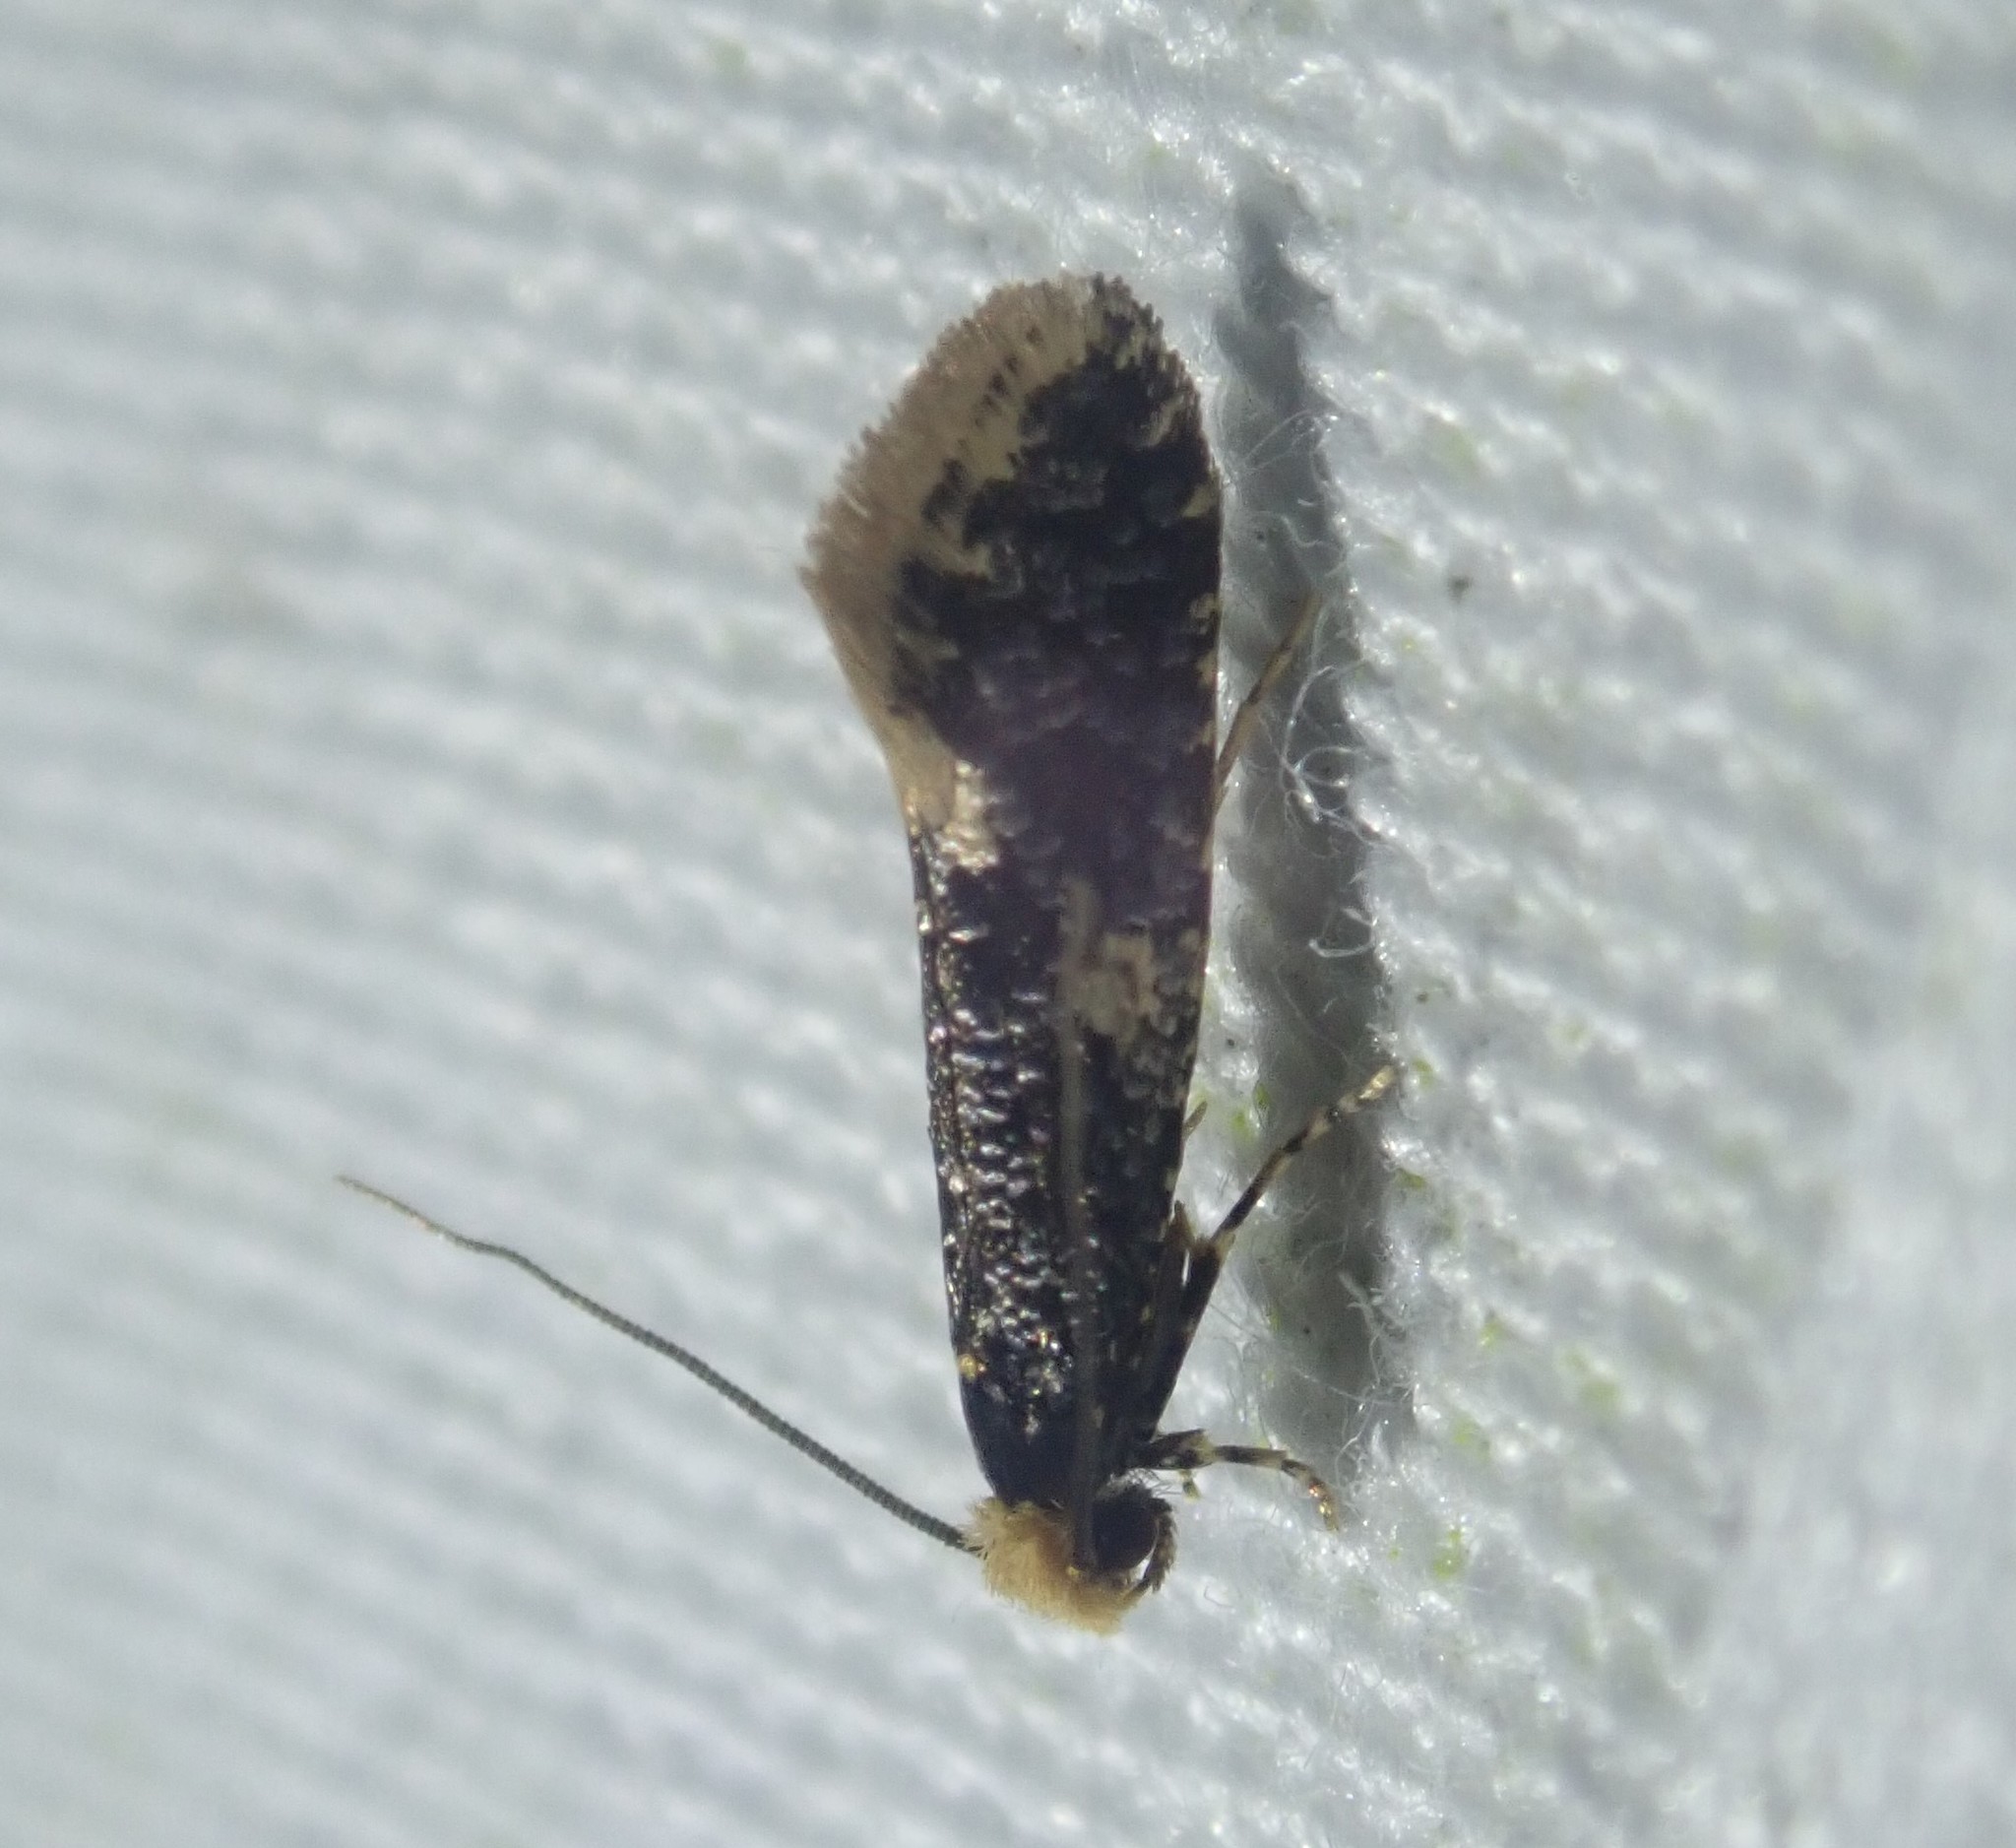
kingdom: Animalia
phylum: Arthropoda
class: Insecta
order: Lepidoptera
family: Tineidae
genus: Monopis
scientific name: Monopis weaverella
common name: Carrion moth
